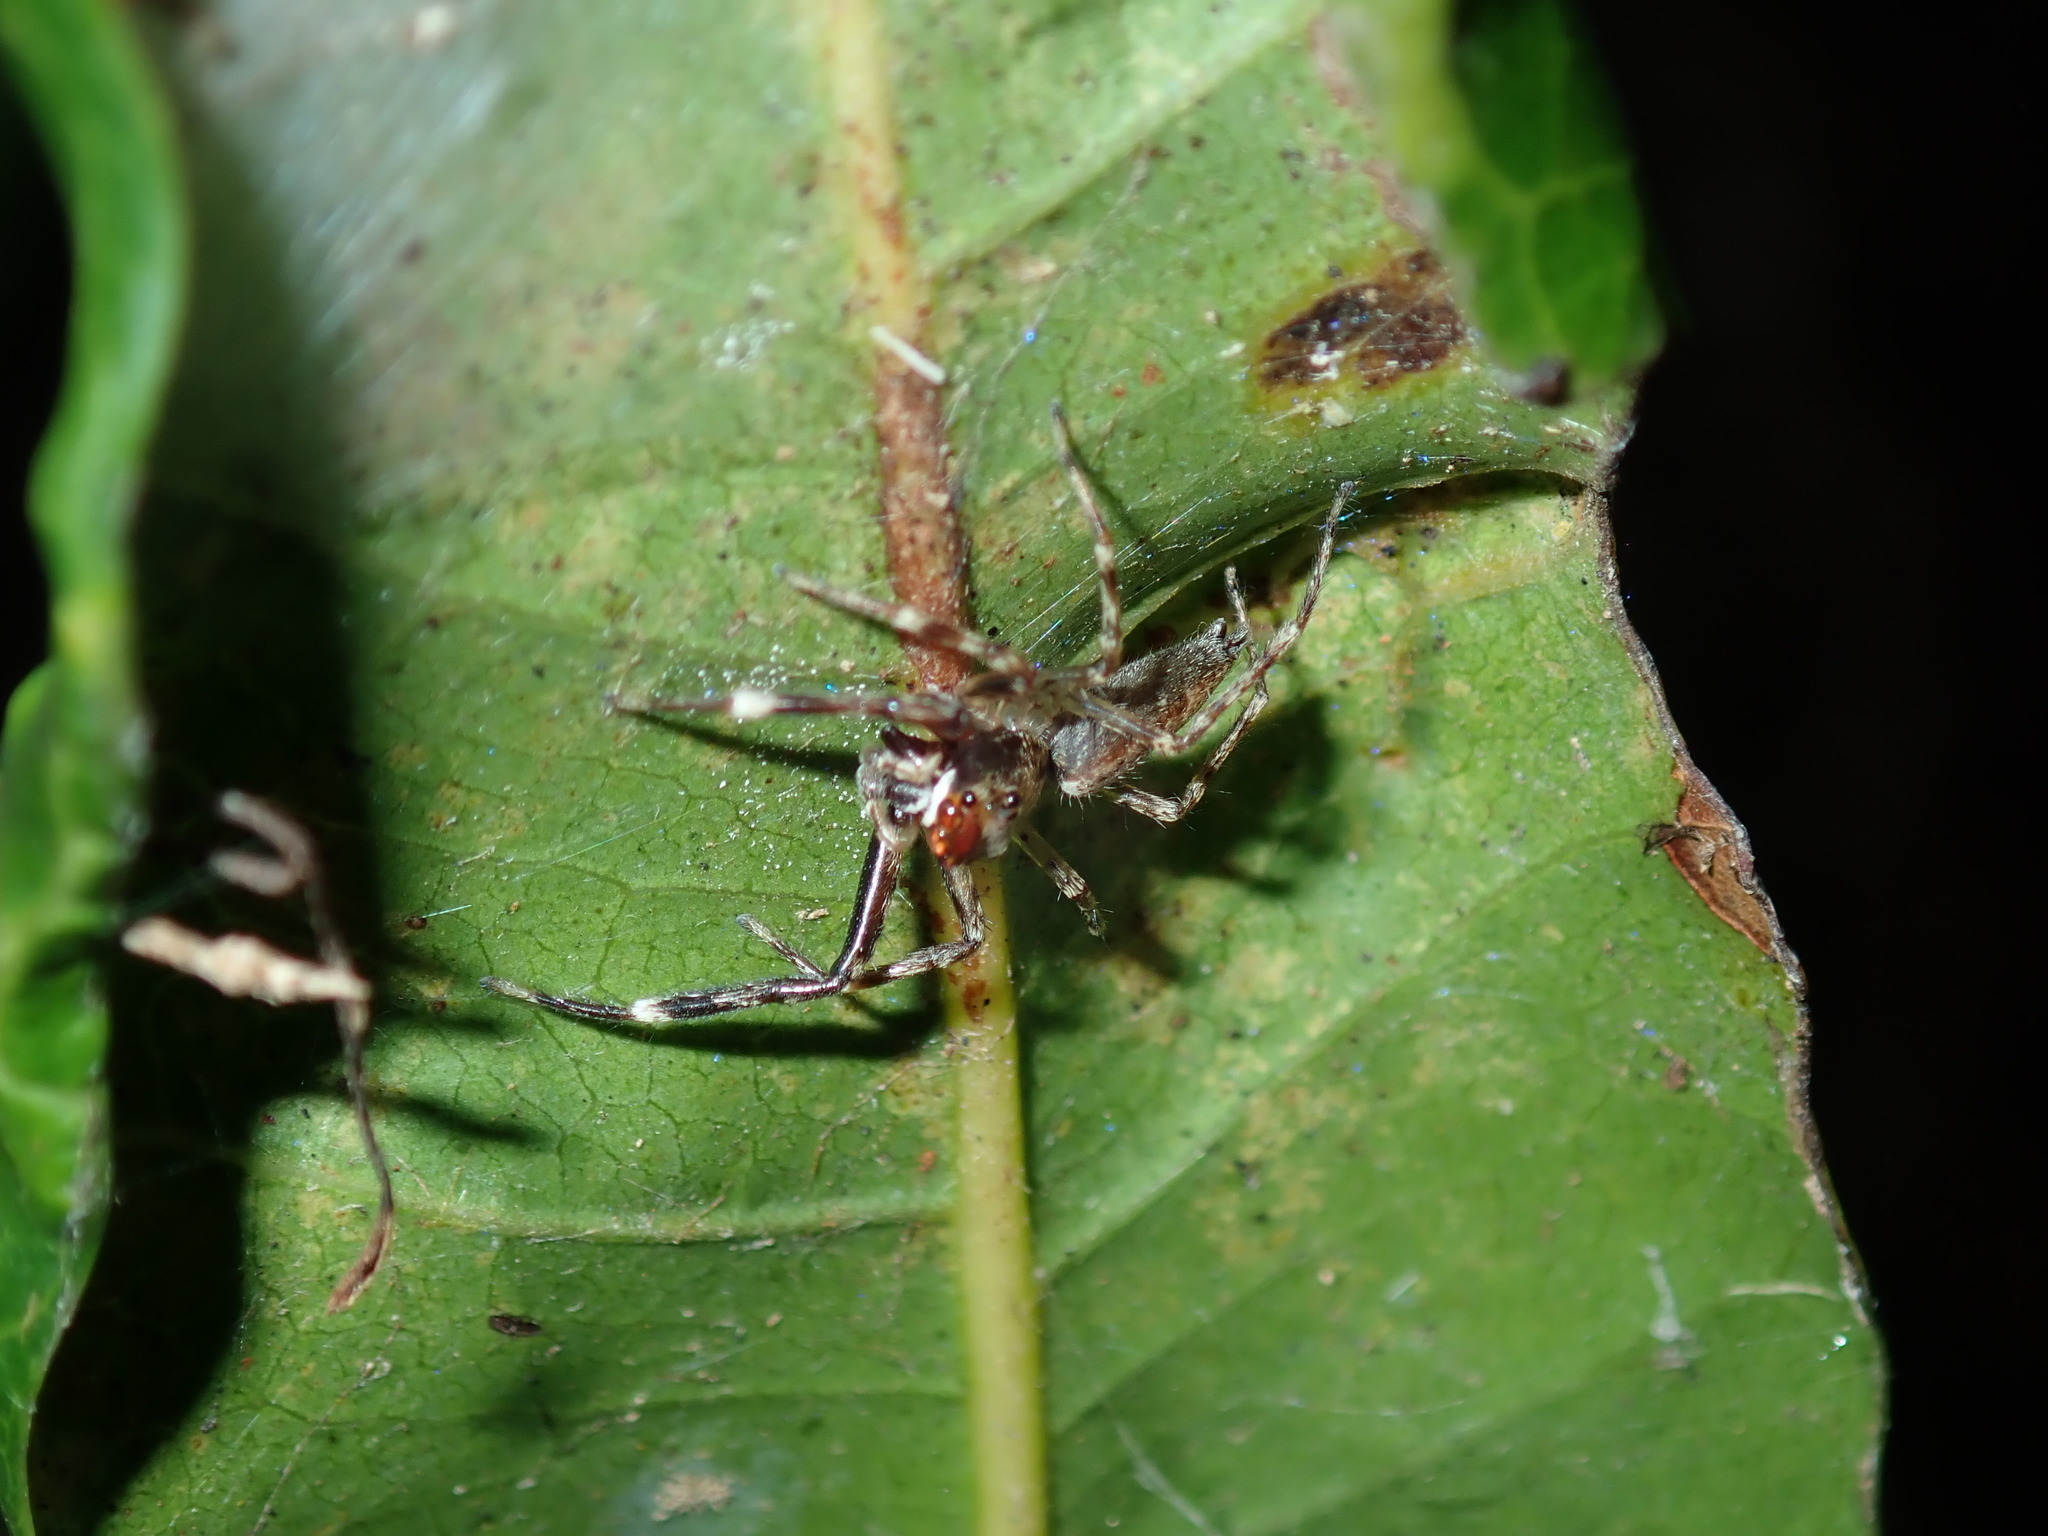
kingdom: Animalia
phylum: Arthropoda
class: Arachnida
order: Araneae
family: Salticidae
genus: Helpis
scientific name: Helpis minitabunda
